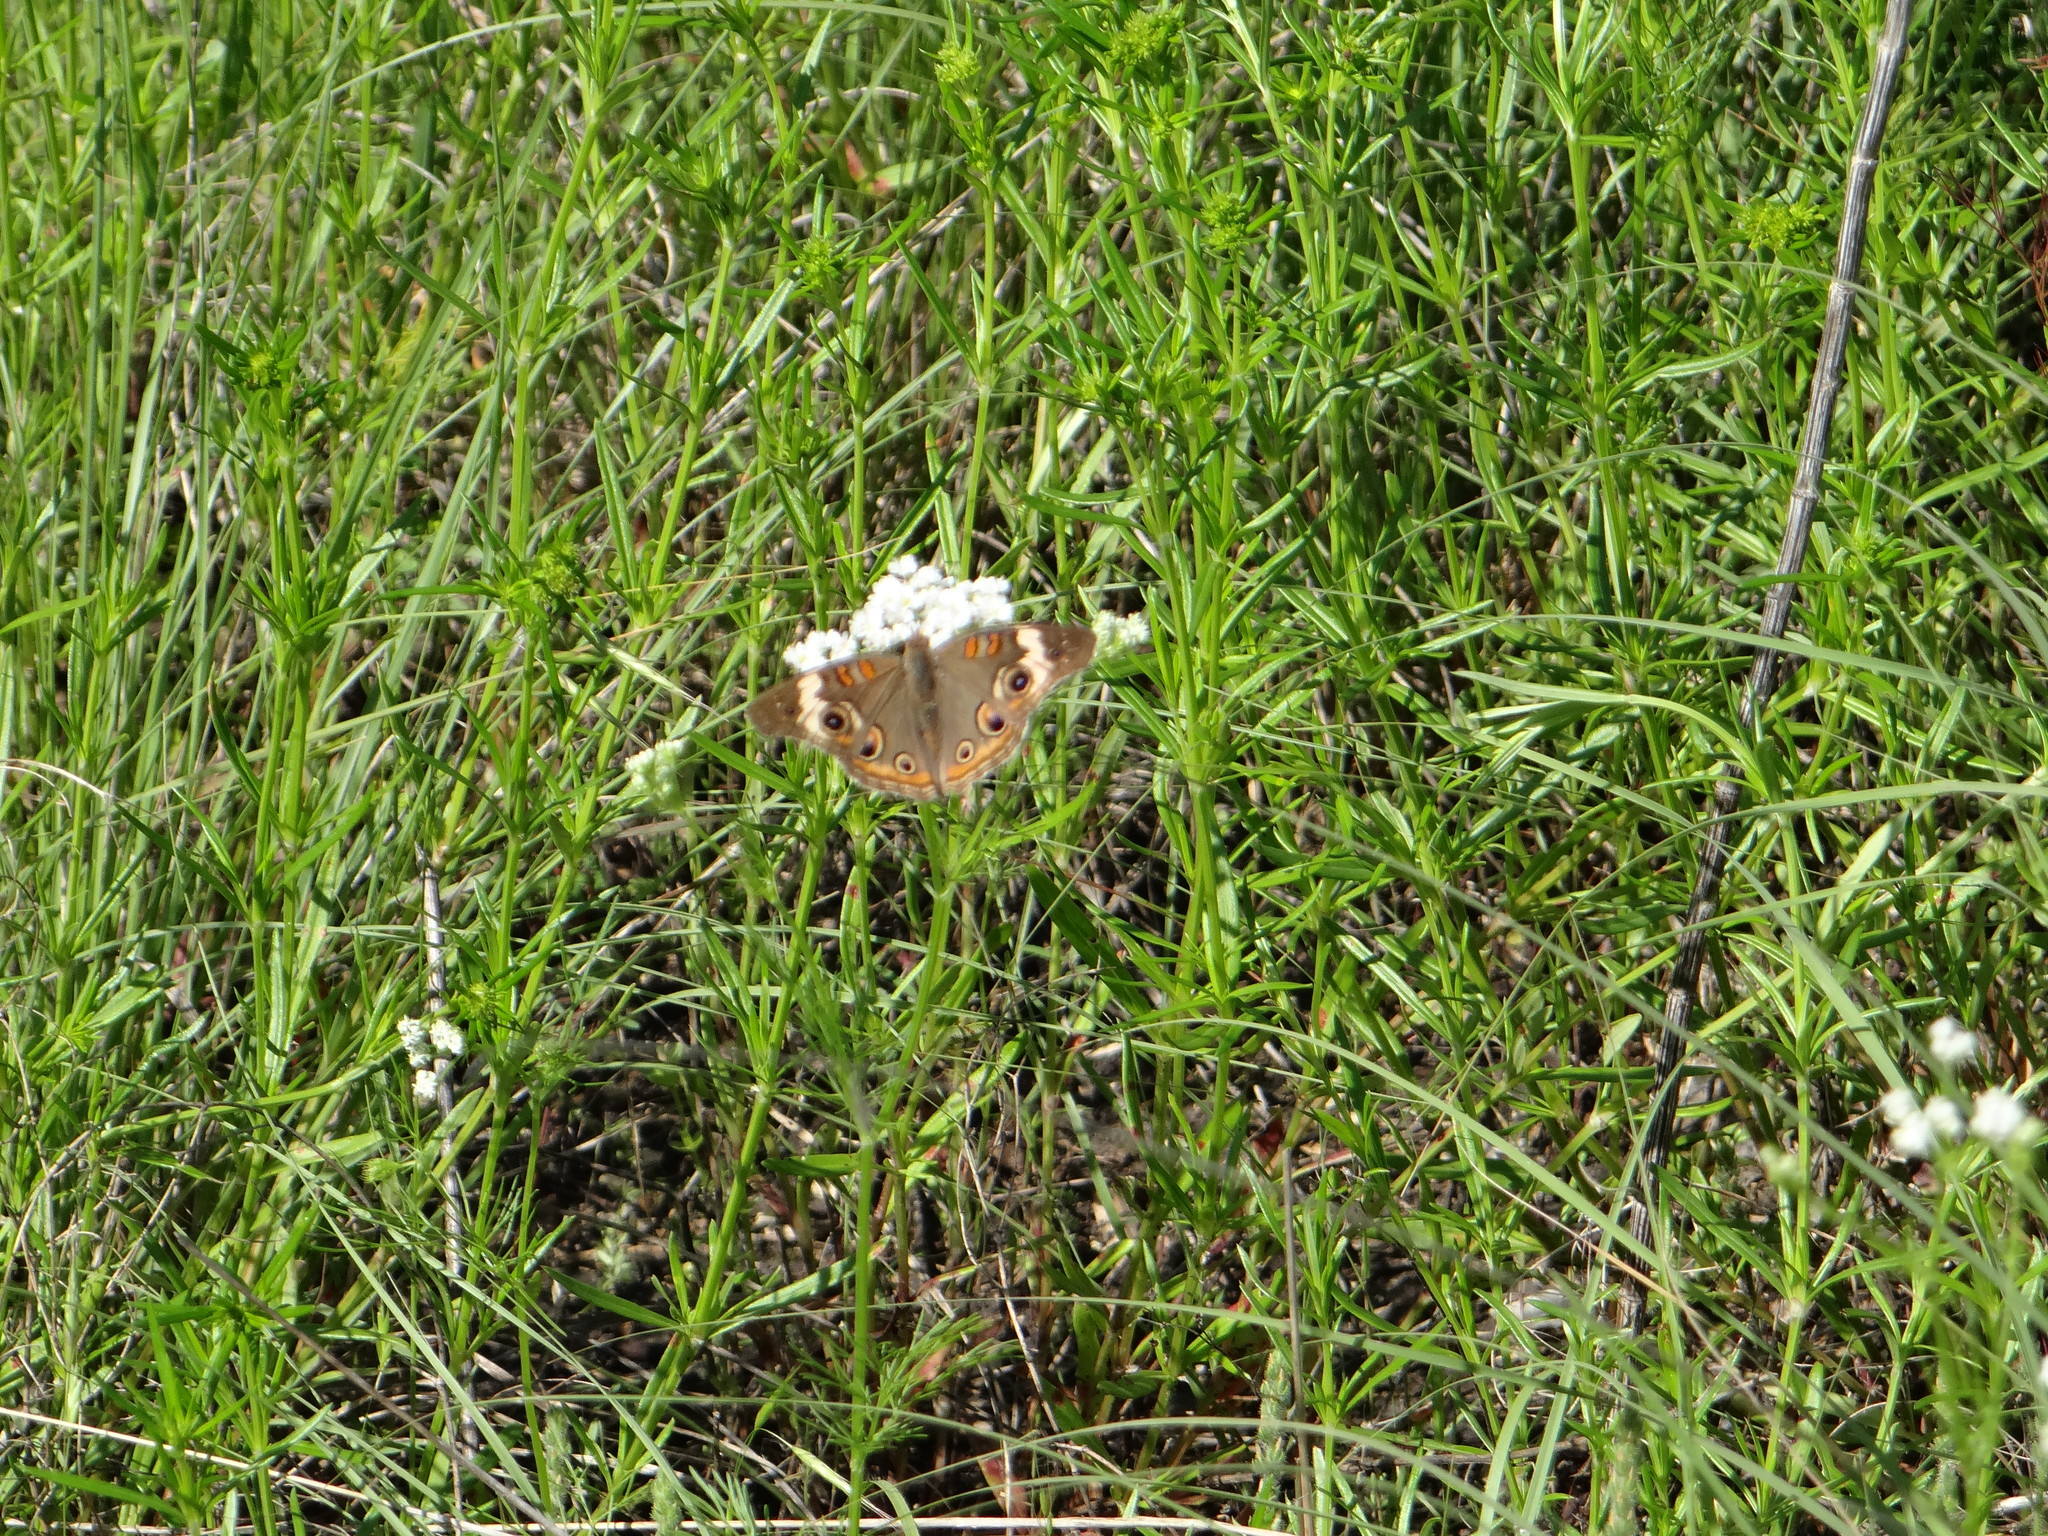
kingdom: Animalia
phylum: Arthropoda
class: Insecta
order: Lepidoptera
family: Nymphalidae
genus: Junonia
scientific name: Junonia coenia
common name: Common buckeye
